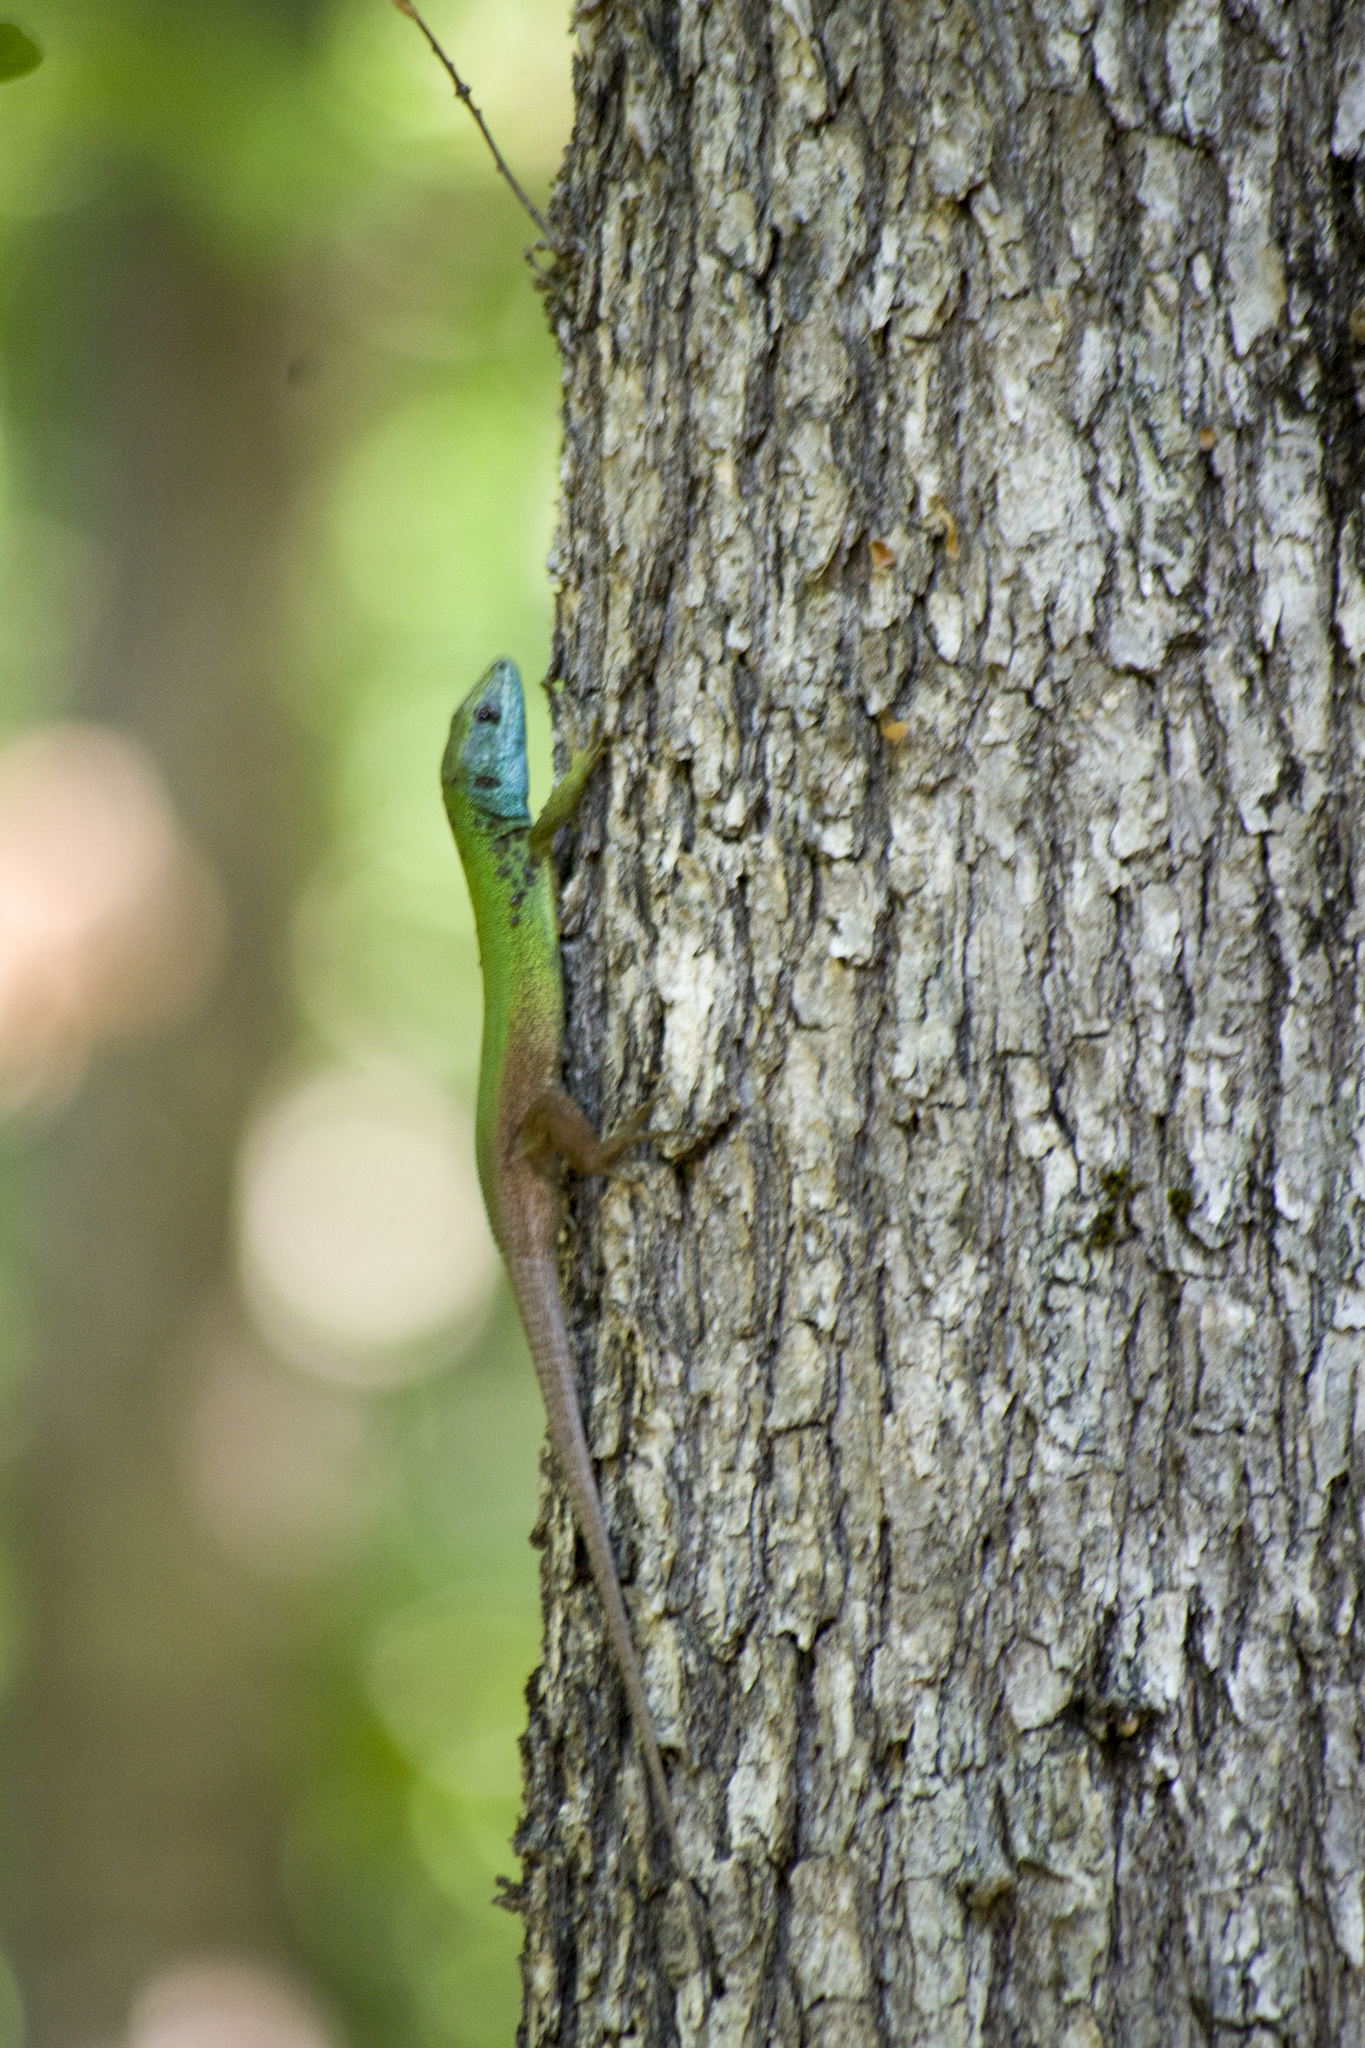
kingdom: Animalia
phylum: Chordata
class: Squamata
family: Lacertidae
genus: Lacerta
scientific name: Lacerta viridis
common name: European green lizard
